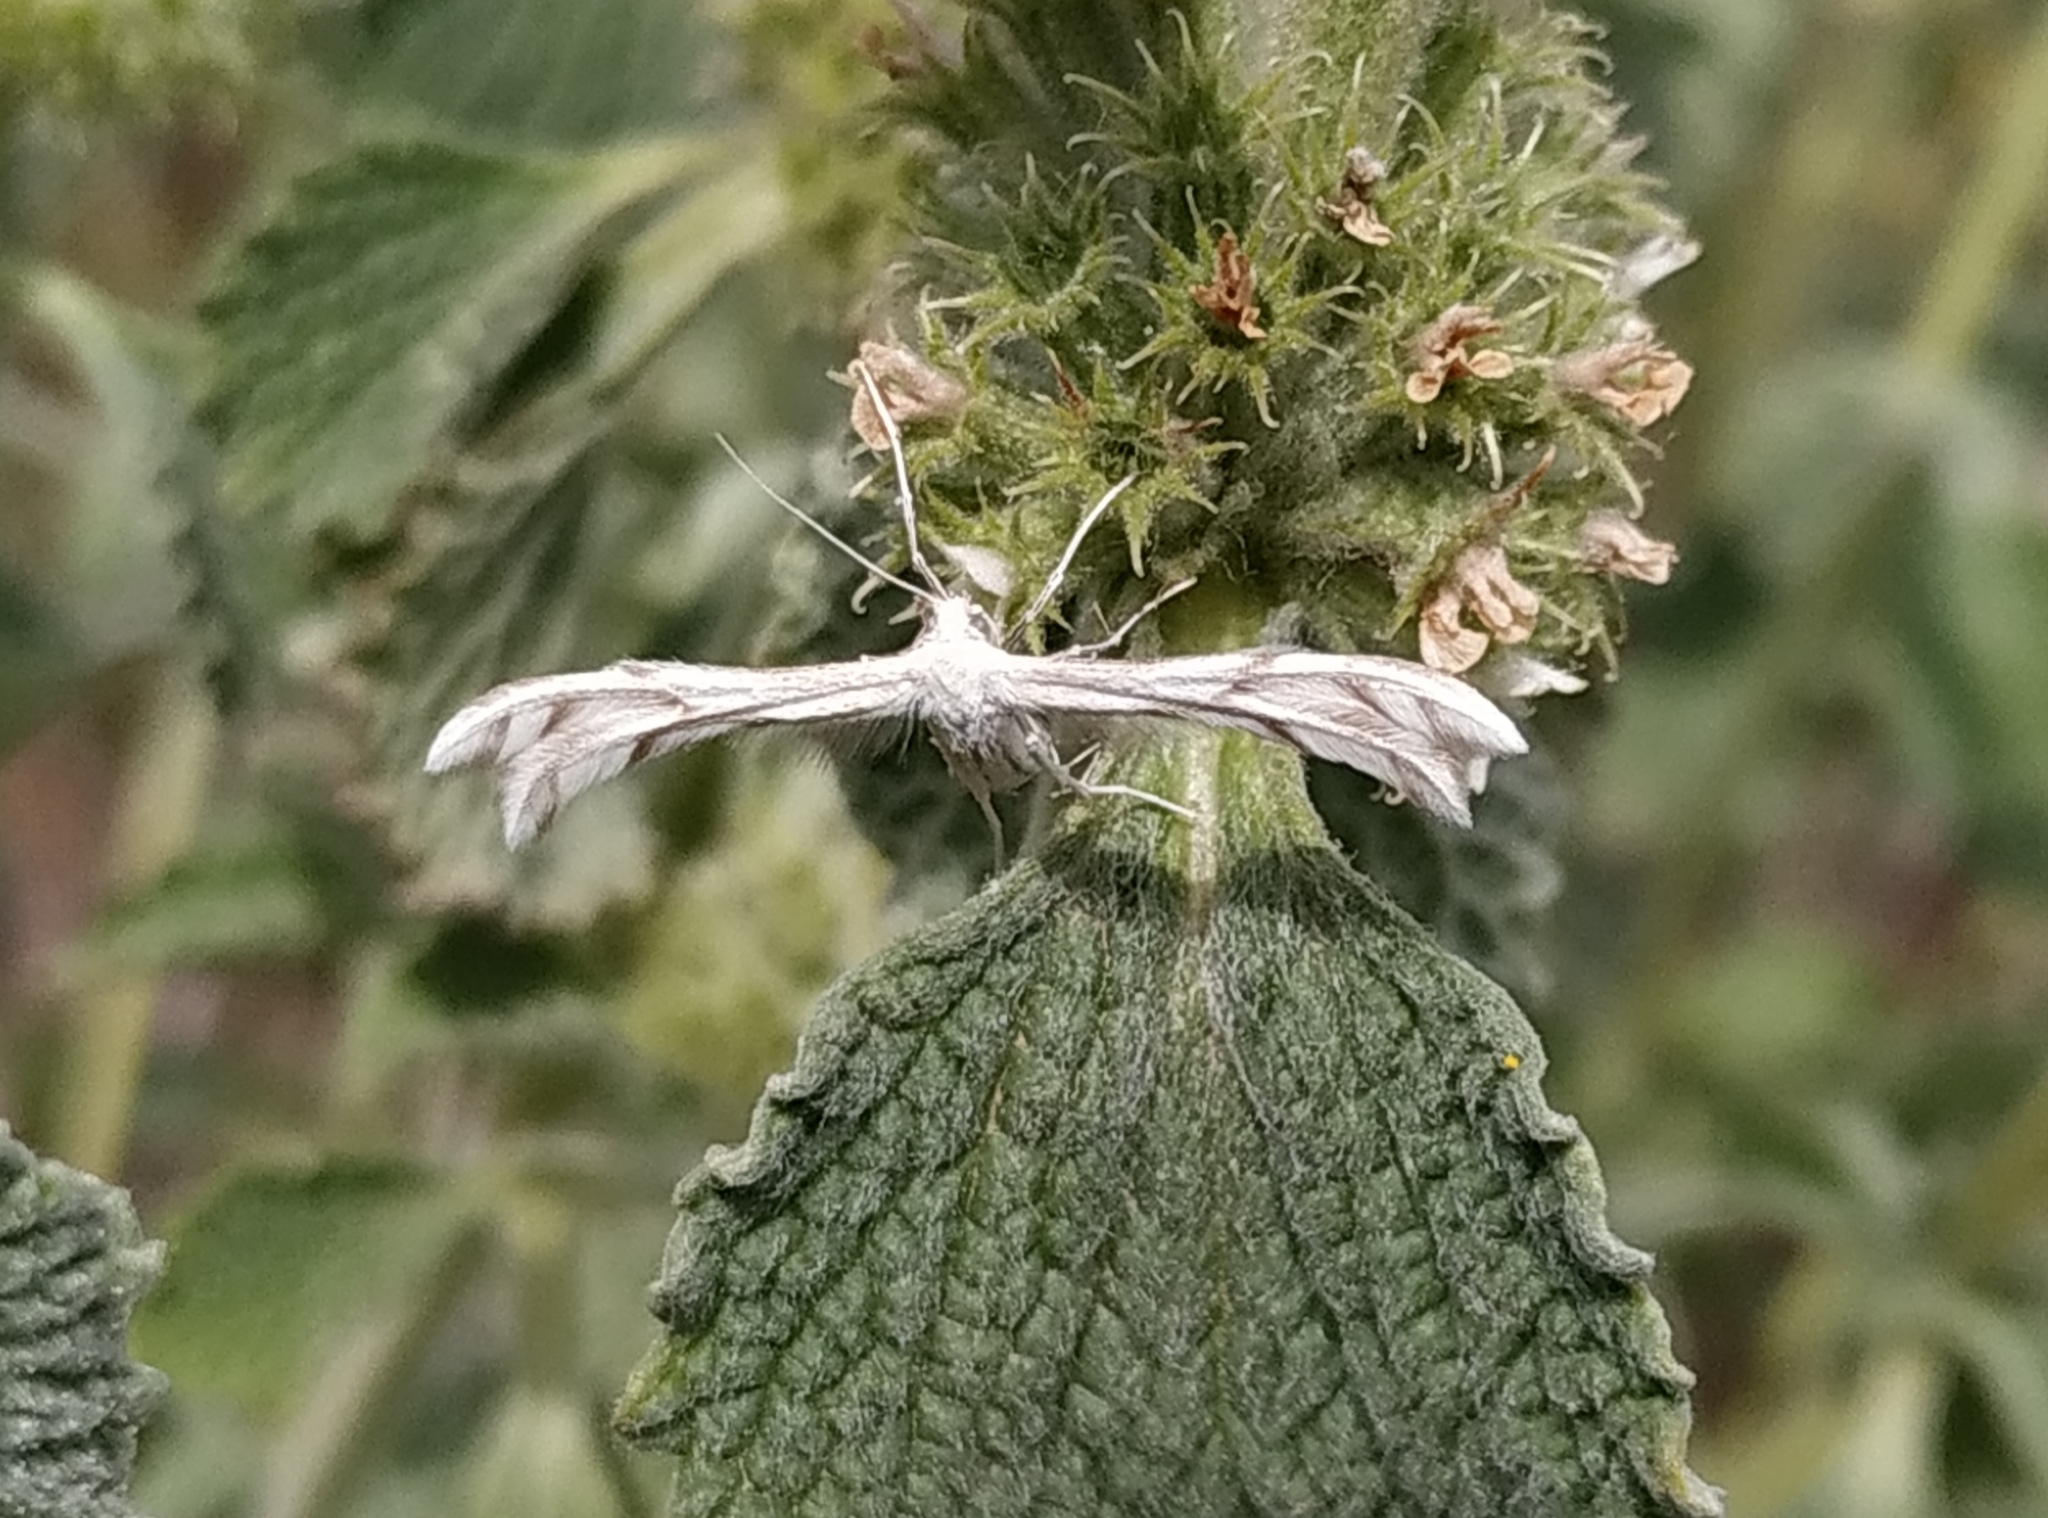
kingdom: Animalia
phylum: Arthropoda
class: Insecta
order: Lepidoptera
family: Pterophoridae
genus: Wheeleria
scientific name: Wheeleria spilodactylus
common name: Horehound plume
